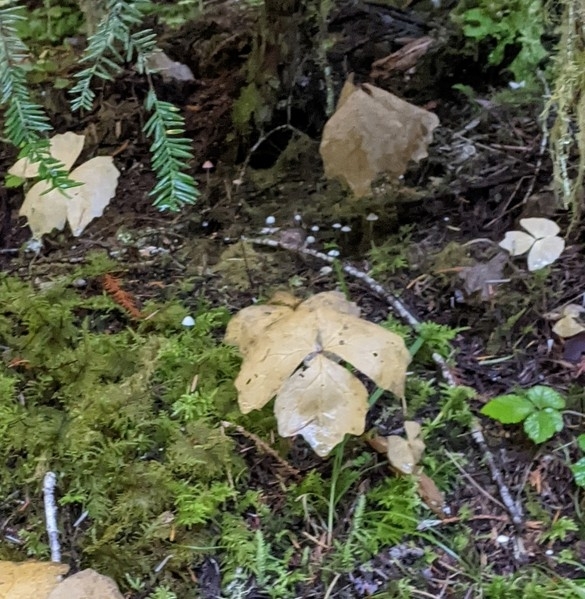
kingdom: Plantae
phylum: Tracheophyta
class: Magnoliopsida
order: Ranunculales
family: Berberidaceae
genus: Achlys
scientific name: Achlys triphylla
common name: Vanilla-leaf
